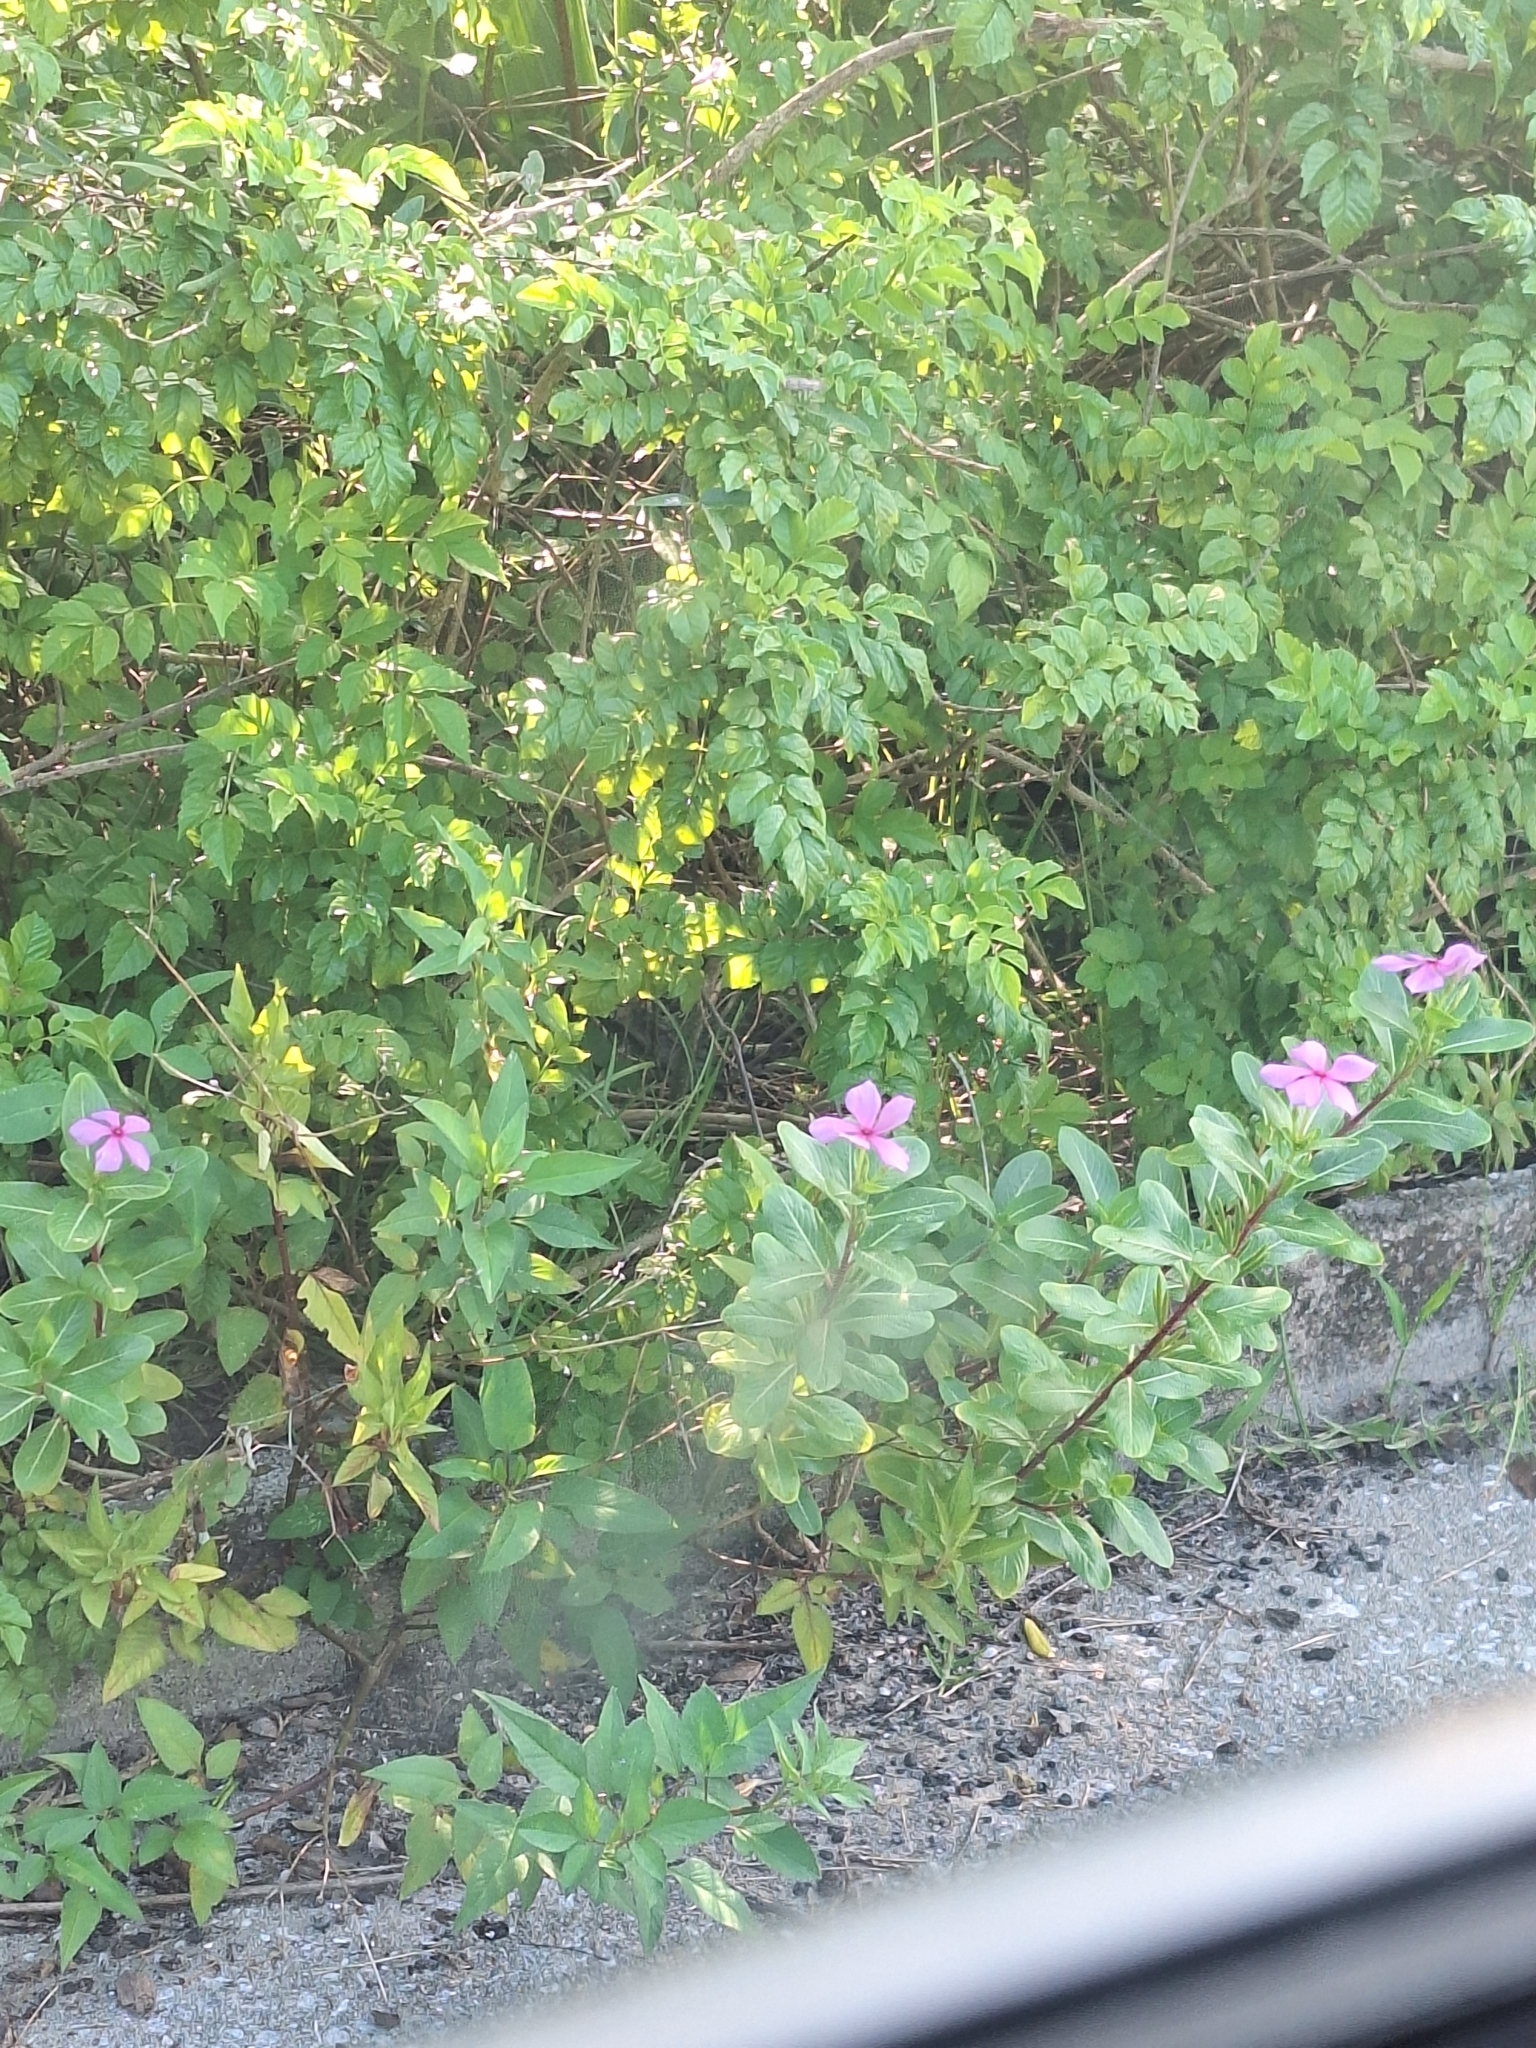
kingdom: Plantae
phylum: Tracheophyta
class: Magnoliopsida
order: Gentianales
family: Apocynaceae
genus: Catharanthus
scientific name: Catharanthus roseus
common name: Madagascar periwinkle
